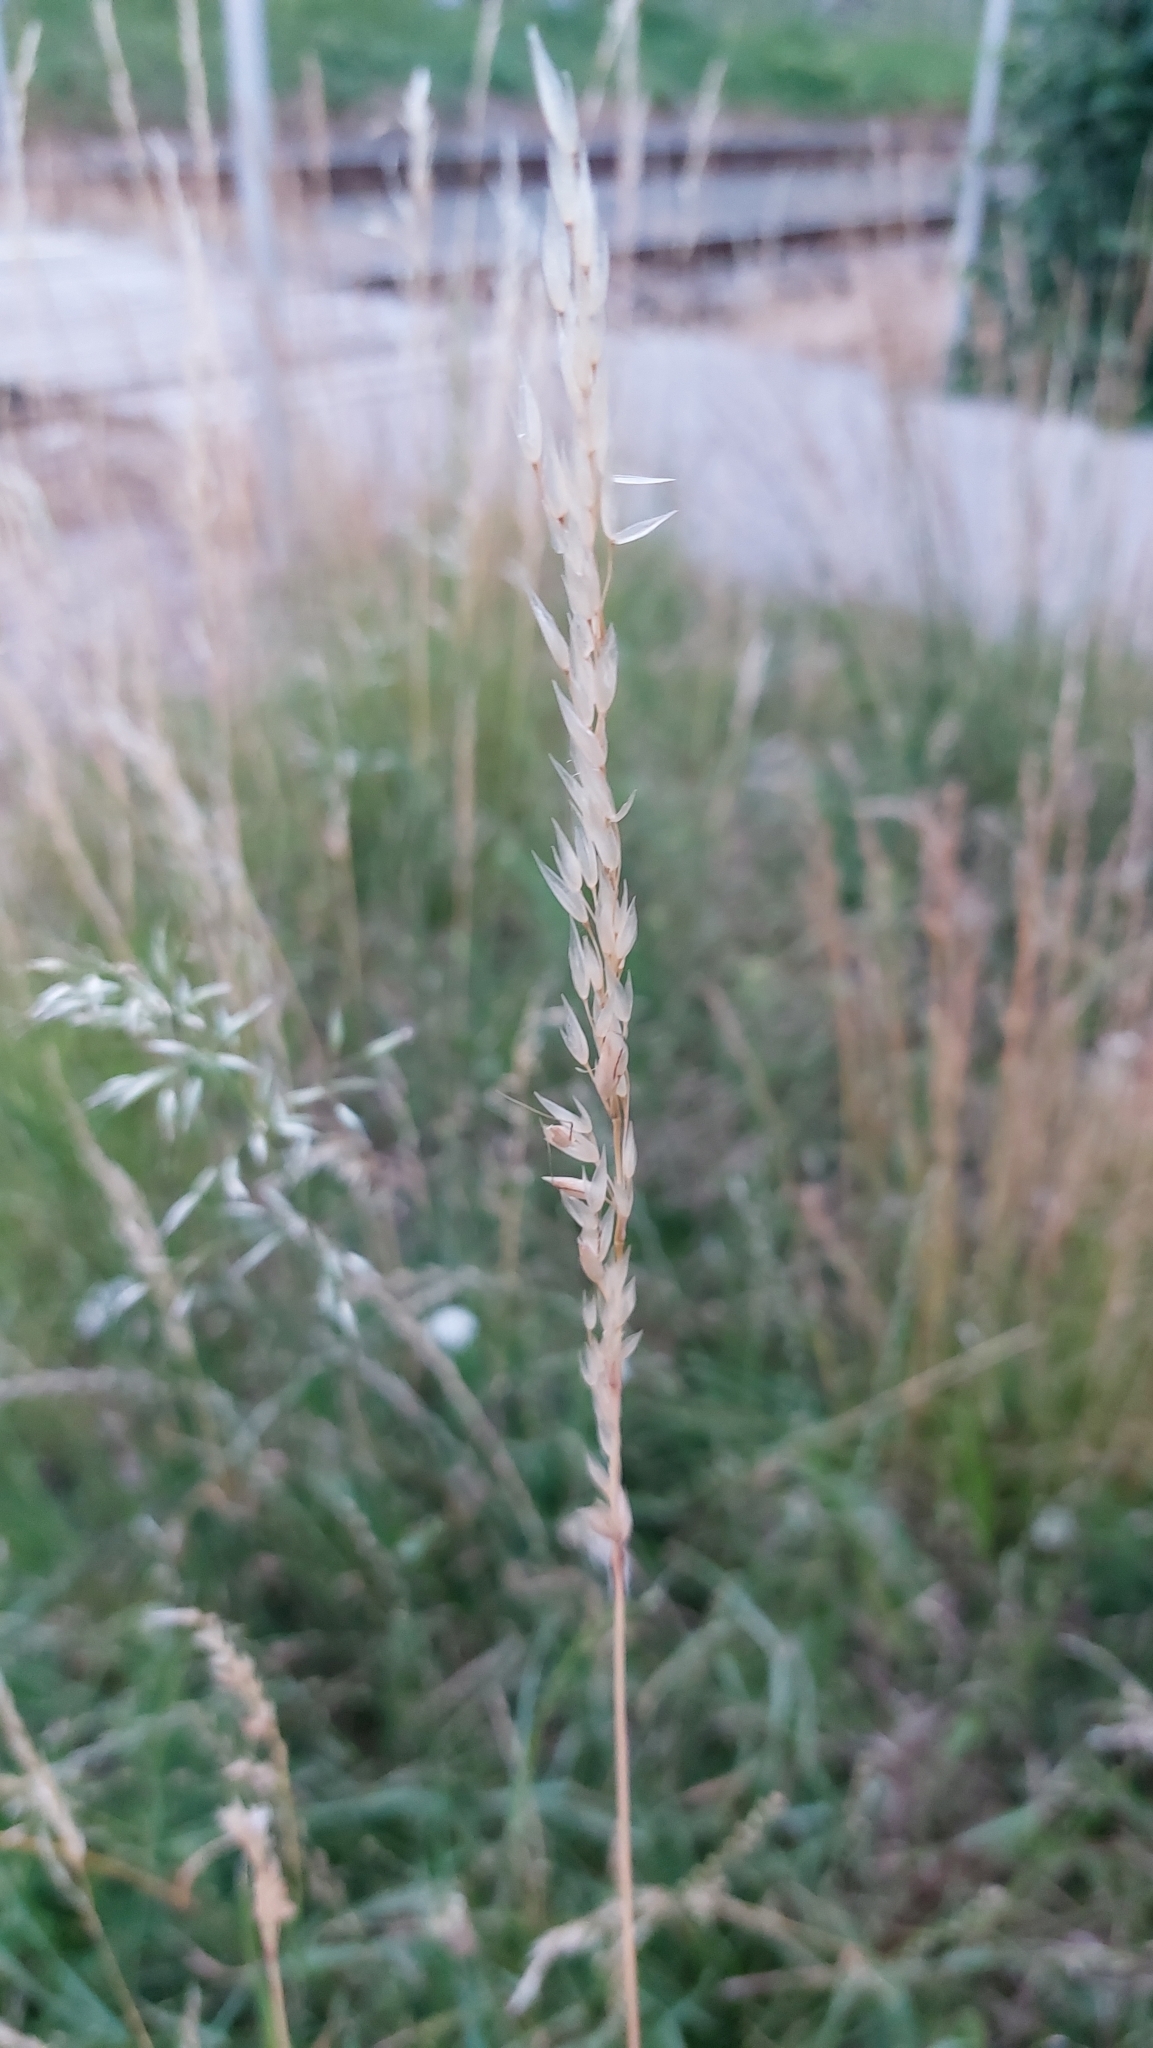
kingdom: Plantae
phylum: Tracheophyta
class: Liliopsida
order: Poales
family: Poaceae
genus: Arrhenatherum
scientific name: Arrhenatherum elatius
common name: Tall oatgrass
